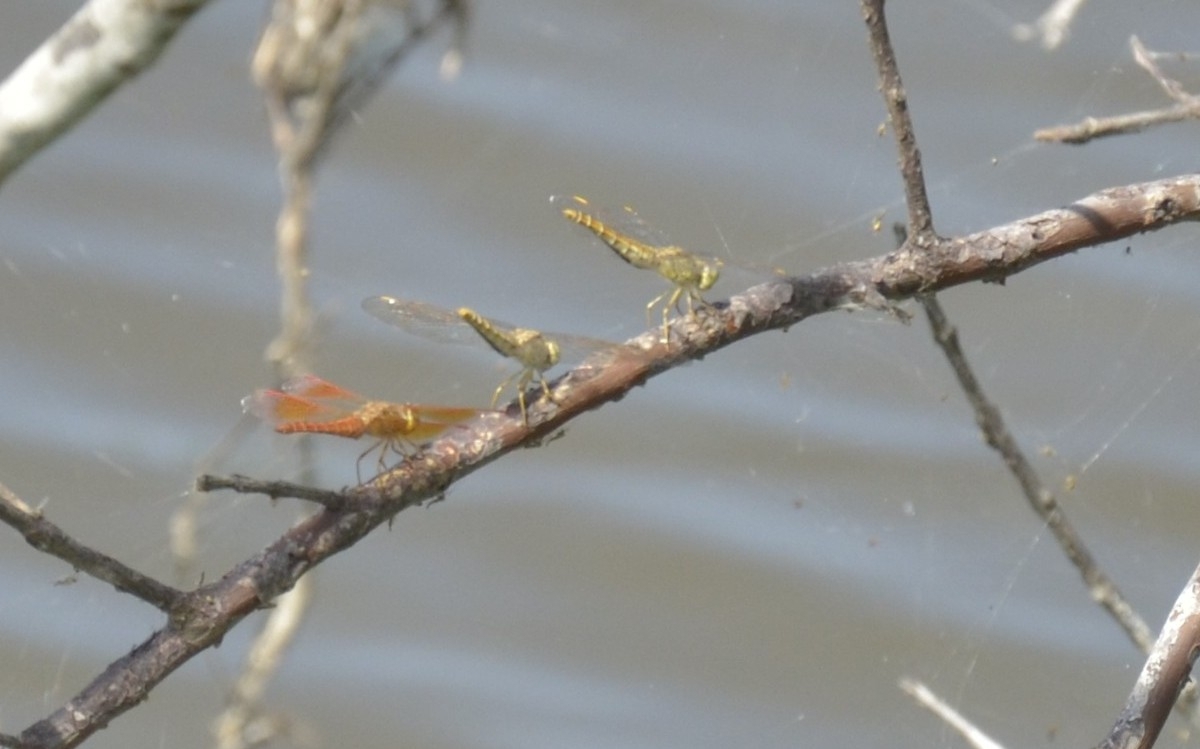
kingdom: Animalia
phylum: Arthropoda
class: Insecta
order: Odonata
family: Libellulidae
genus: Brachythemis
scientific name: Brachythemis contaminata
